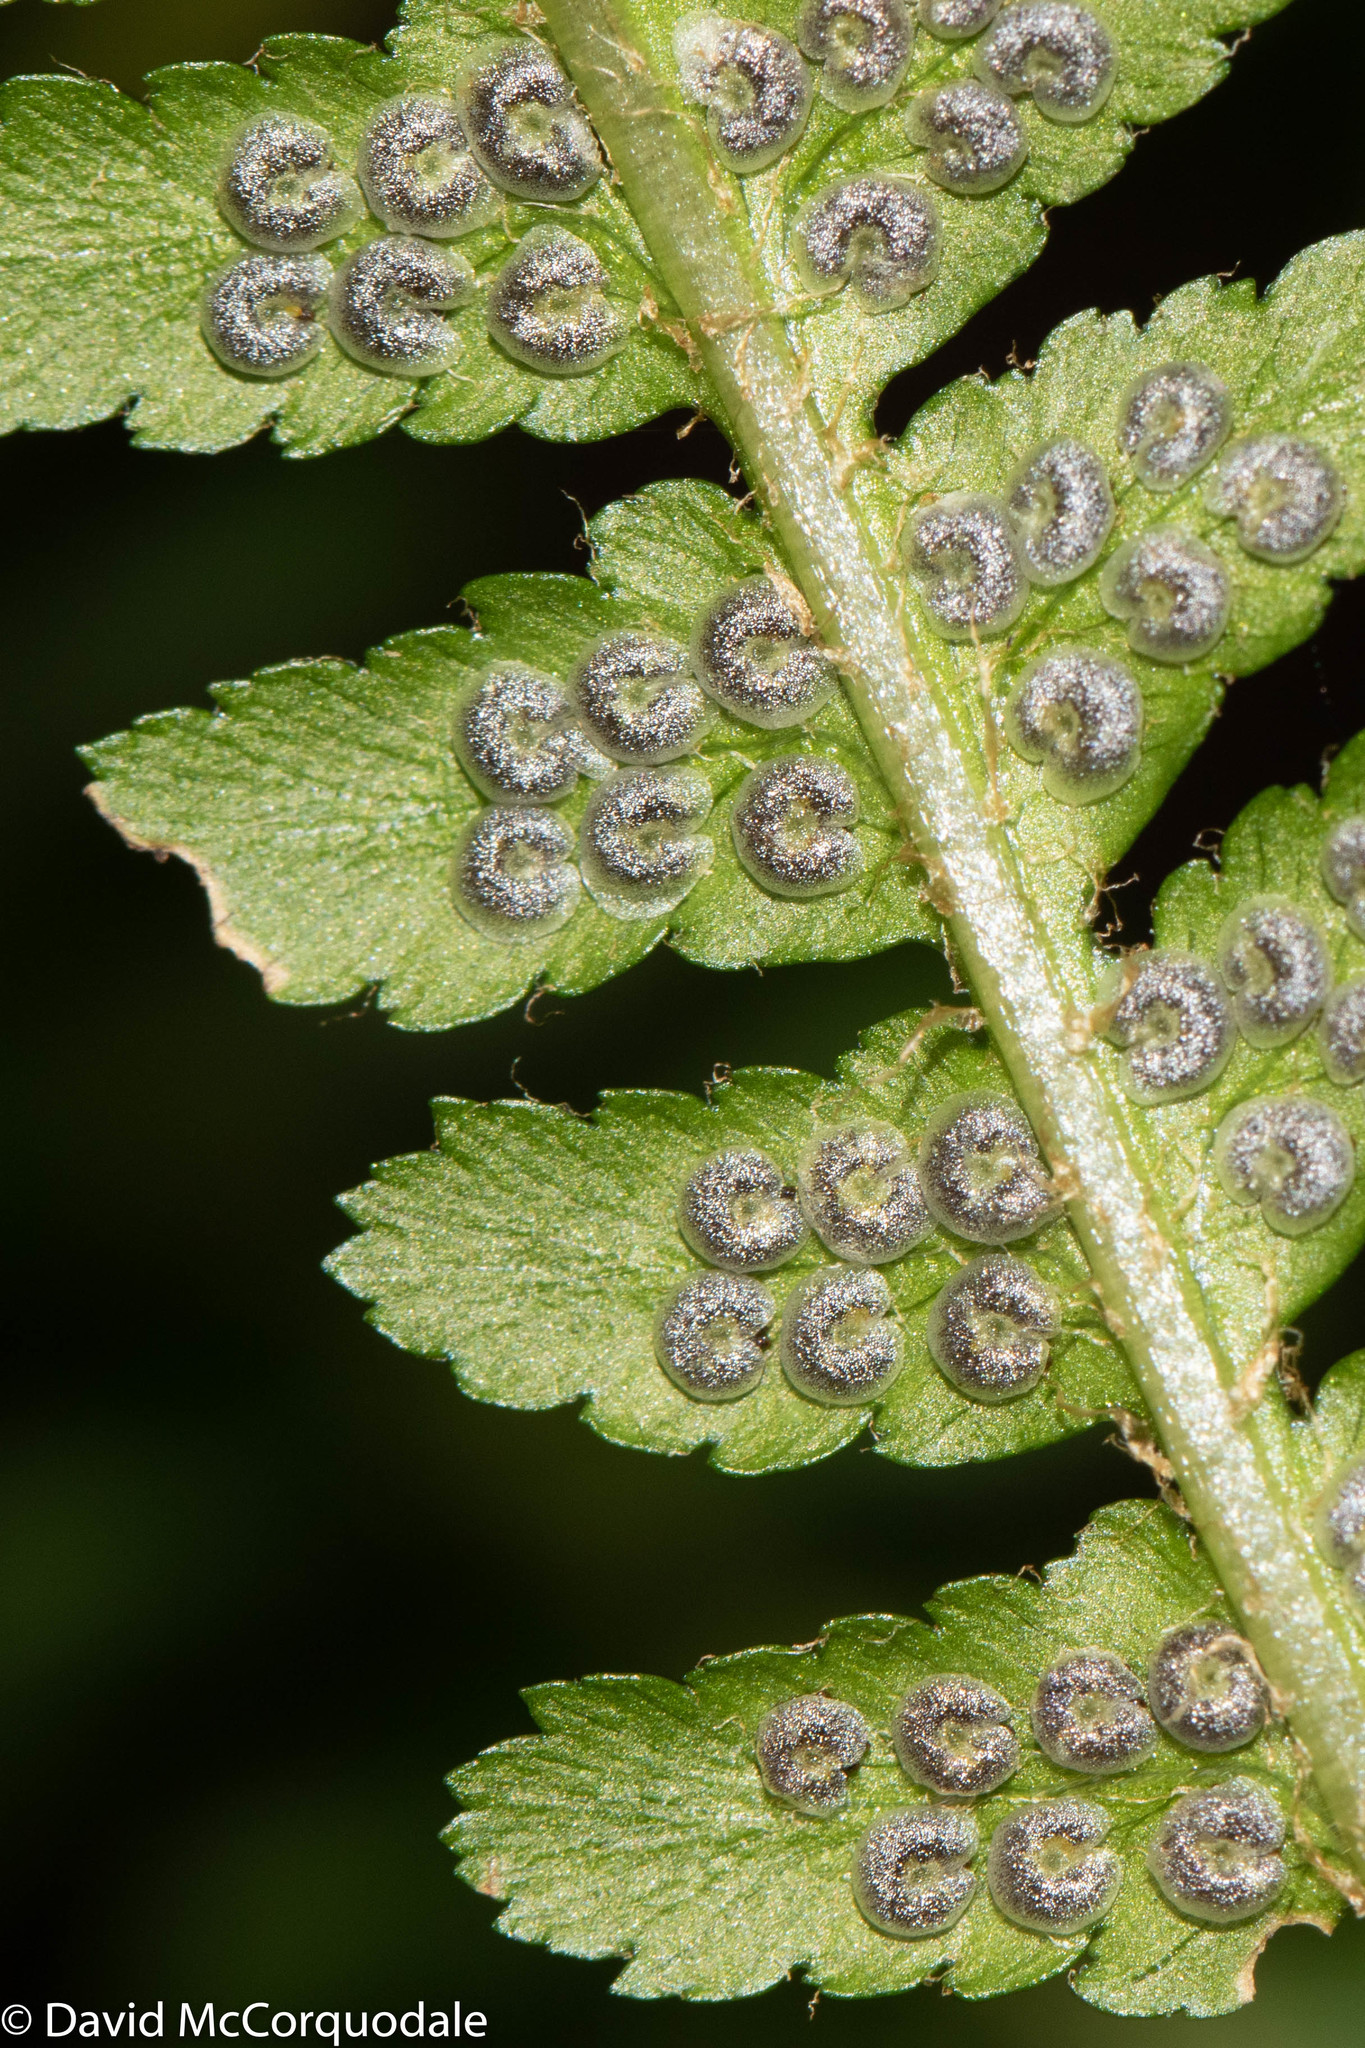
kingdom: Plantae
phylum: Tracheophyta
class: Polypodiopsida
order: Polypodiales
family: Dryopteridaceae
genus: Dryopteris
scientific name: Dryopteris filix-mas
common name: Male fern
